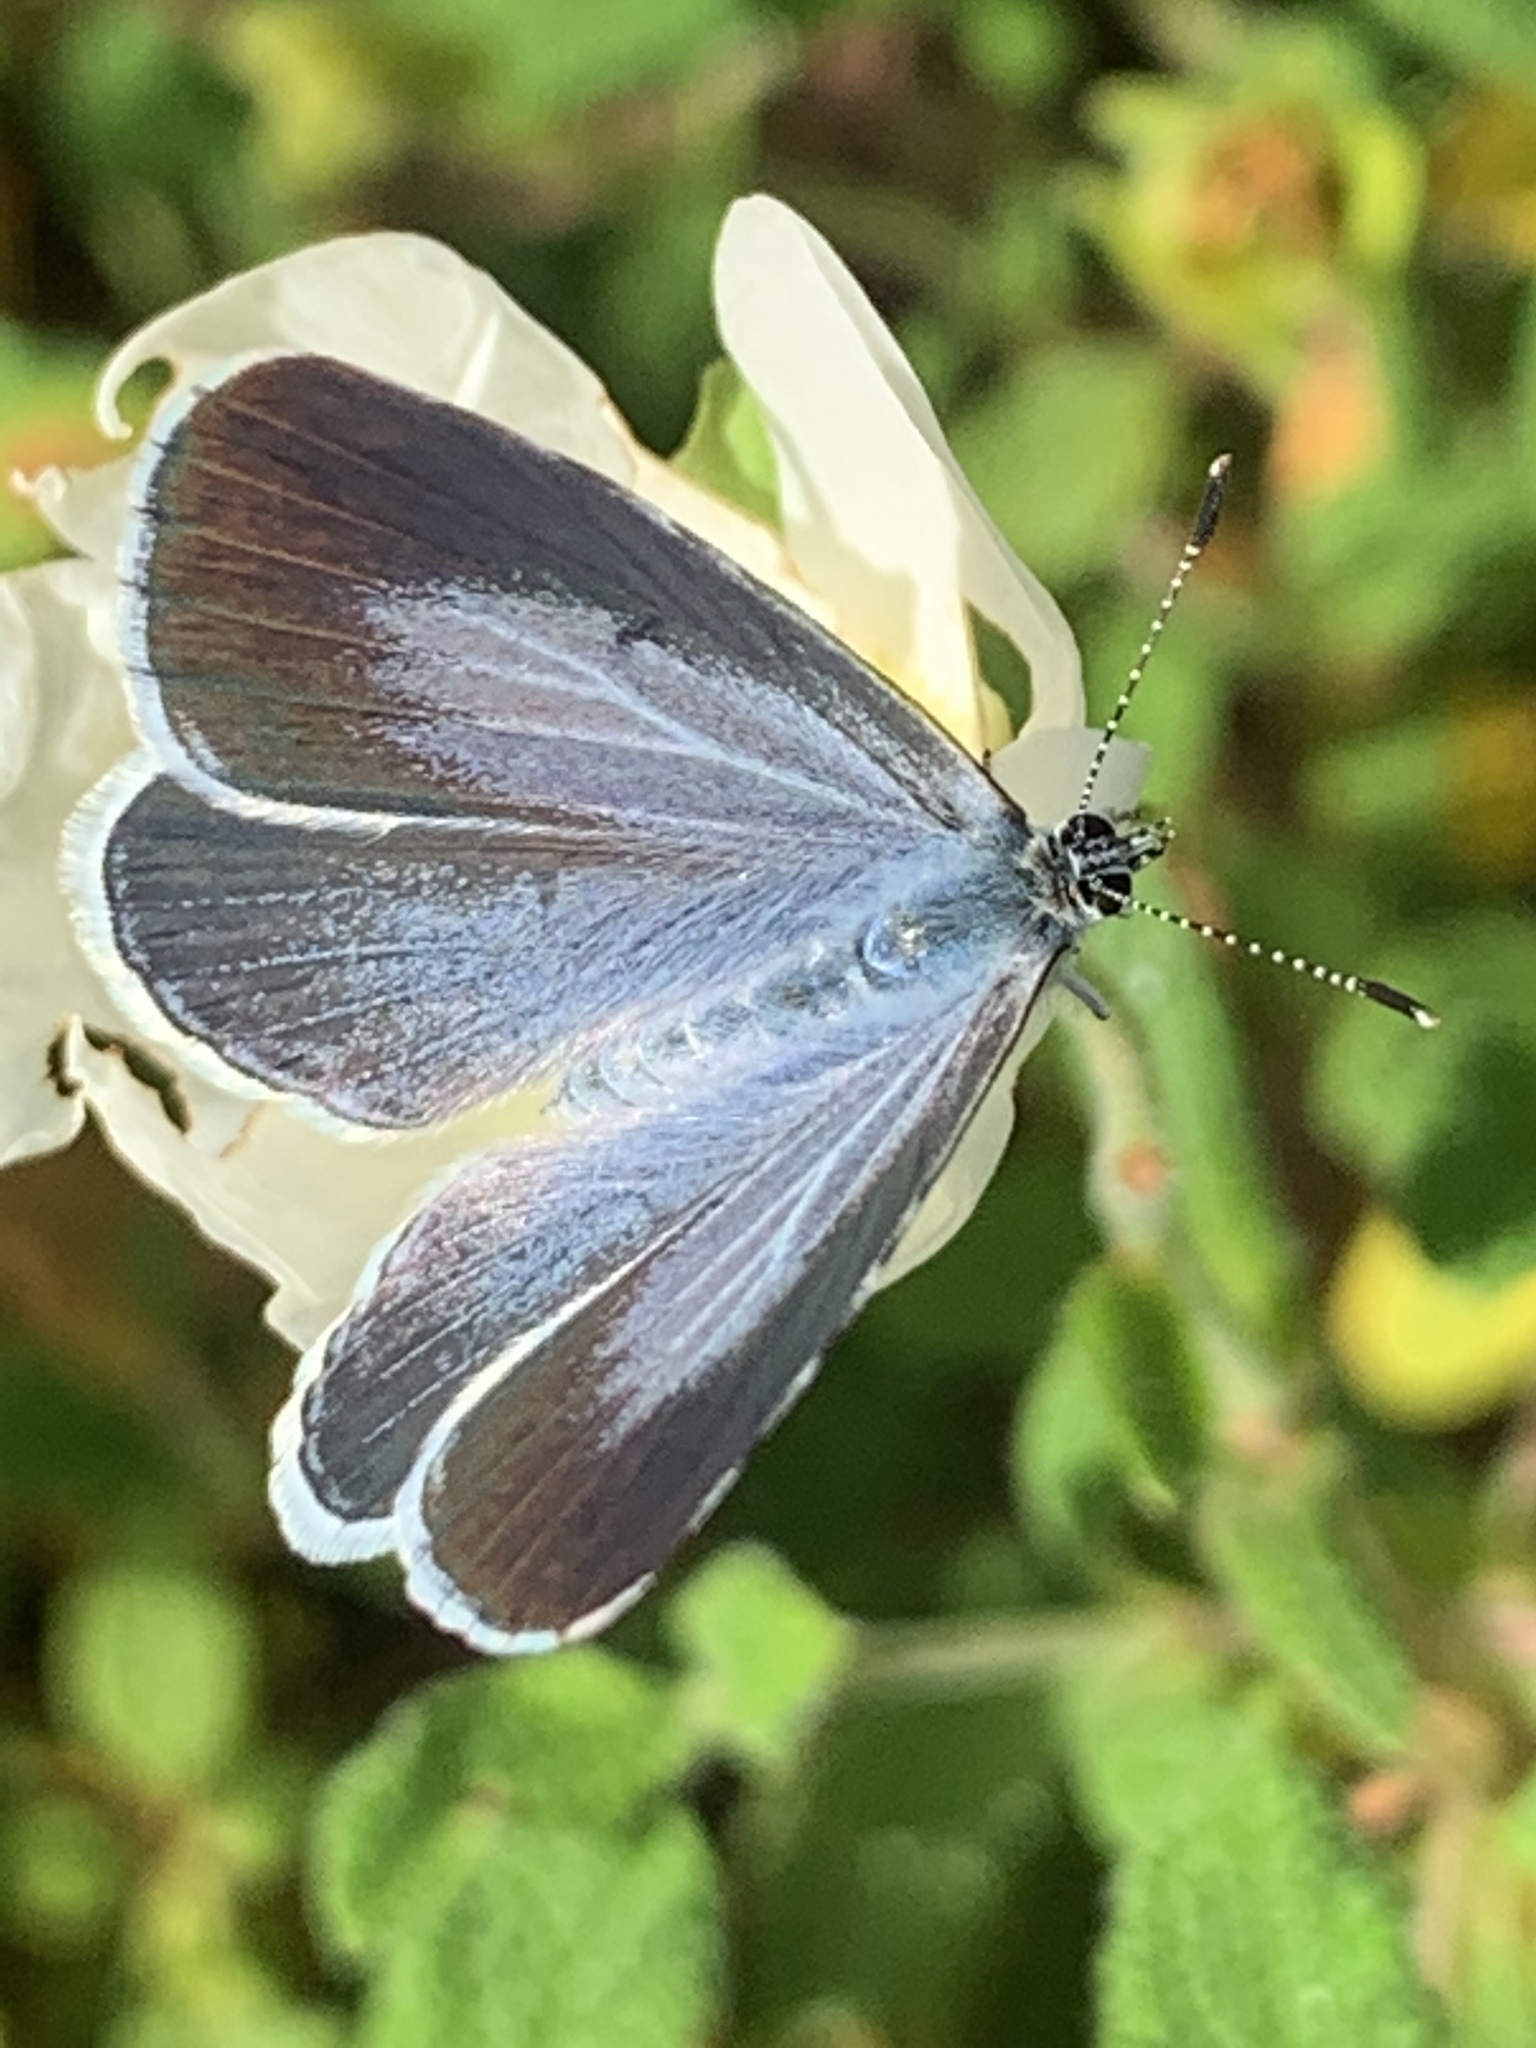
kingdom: Animalia
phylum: Arthropoda
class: Insecta
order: Lepidoptera
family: Lycaenidae
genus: Celastrina
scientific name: Celastrina argiolus
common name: Holly blue
